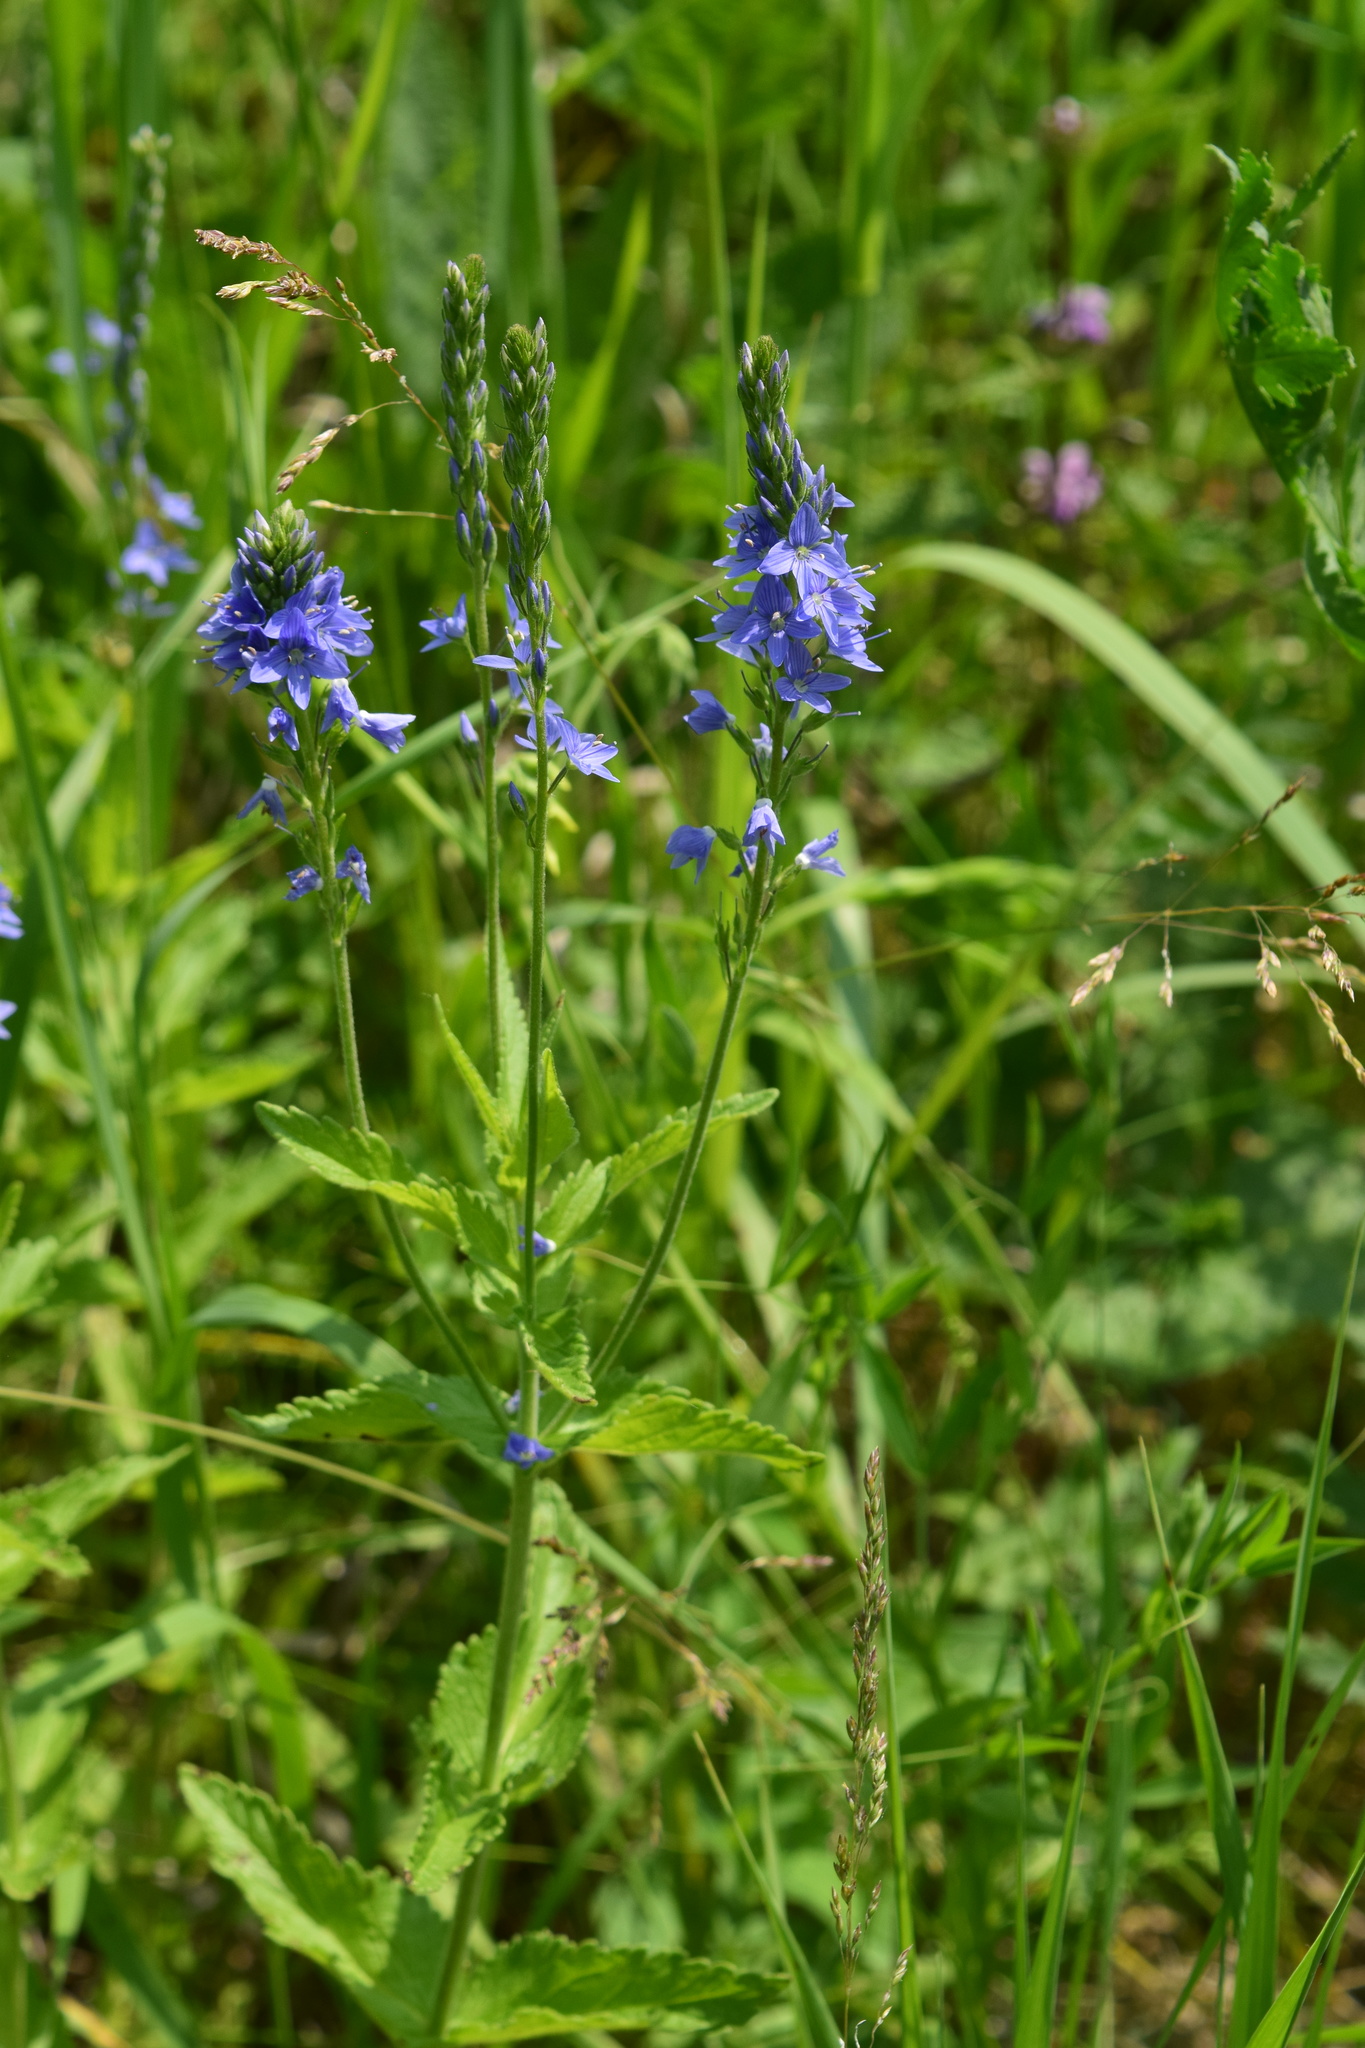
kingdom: Plantae
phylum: Tracheophyta
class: Magnoliopsida
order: Lamiales
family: Plantaginaceae
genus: Veronica
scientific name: Veronica teucrium
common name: Large speedwell
